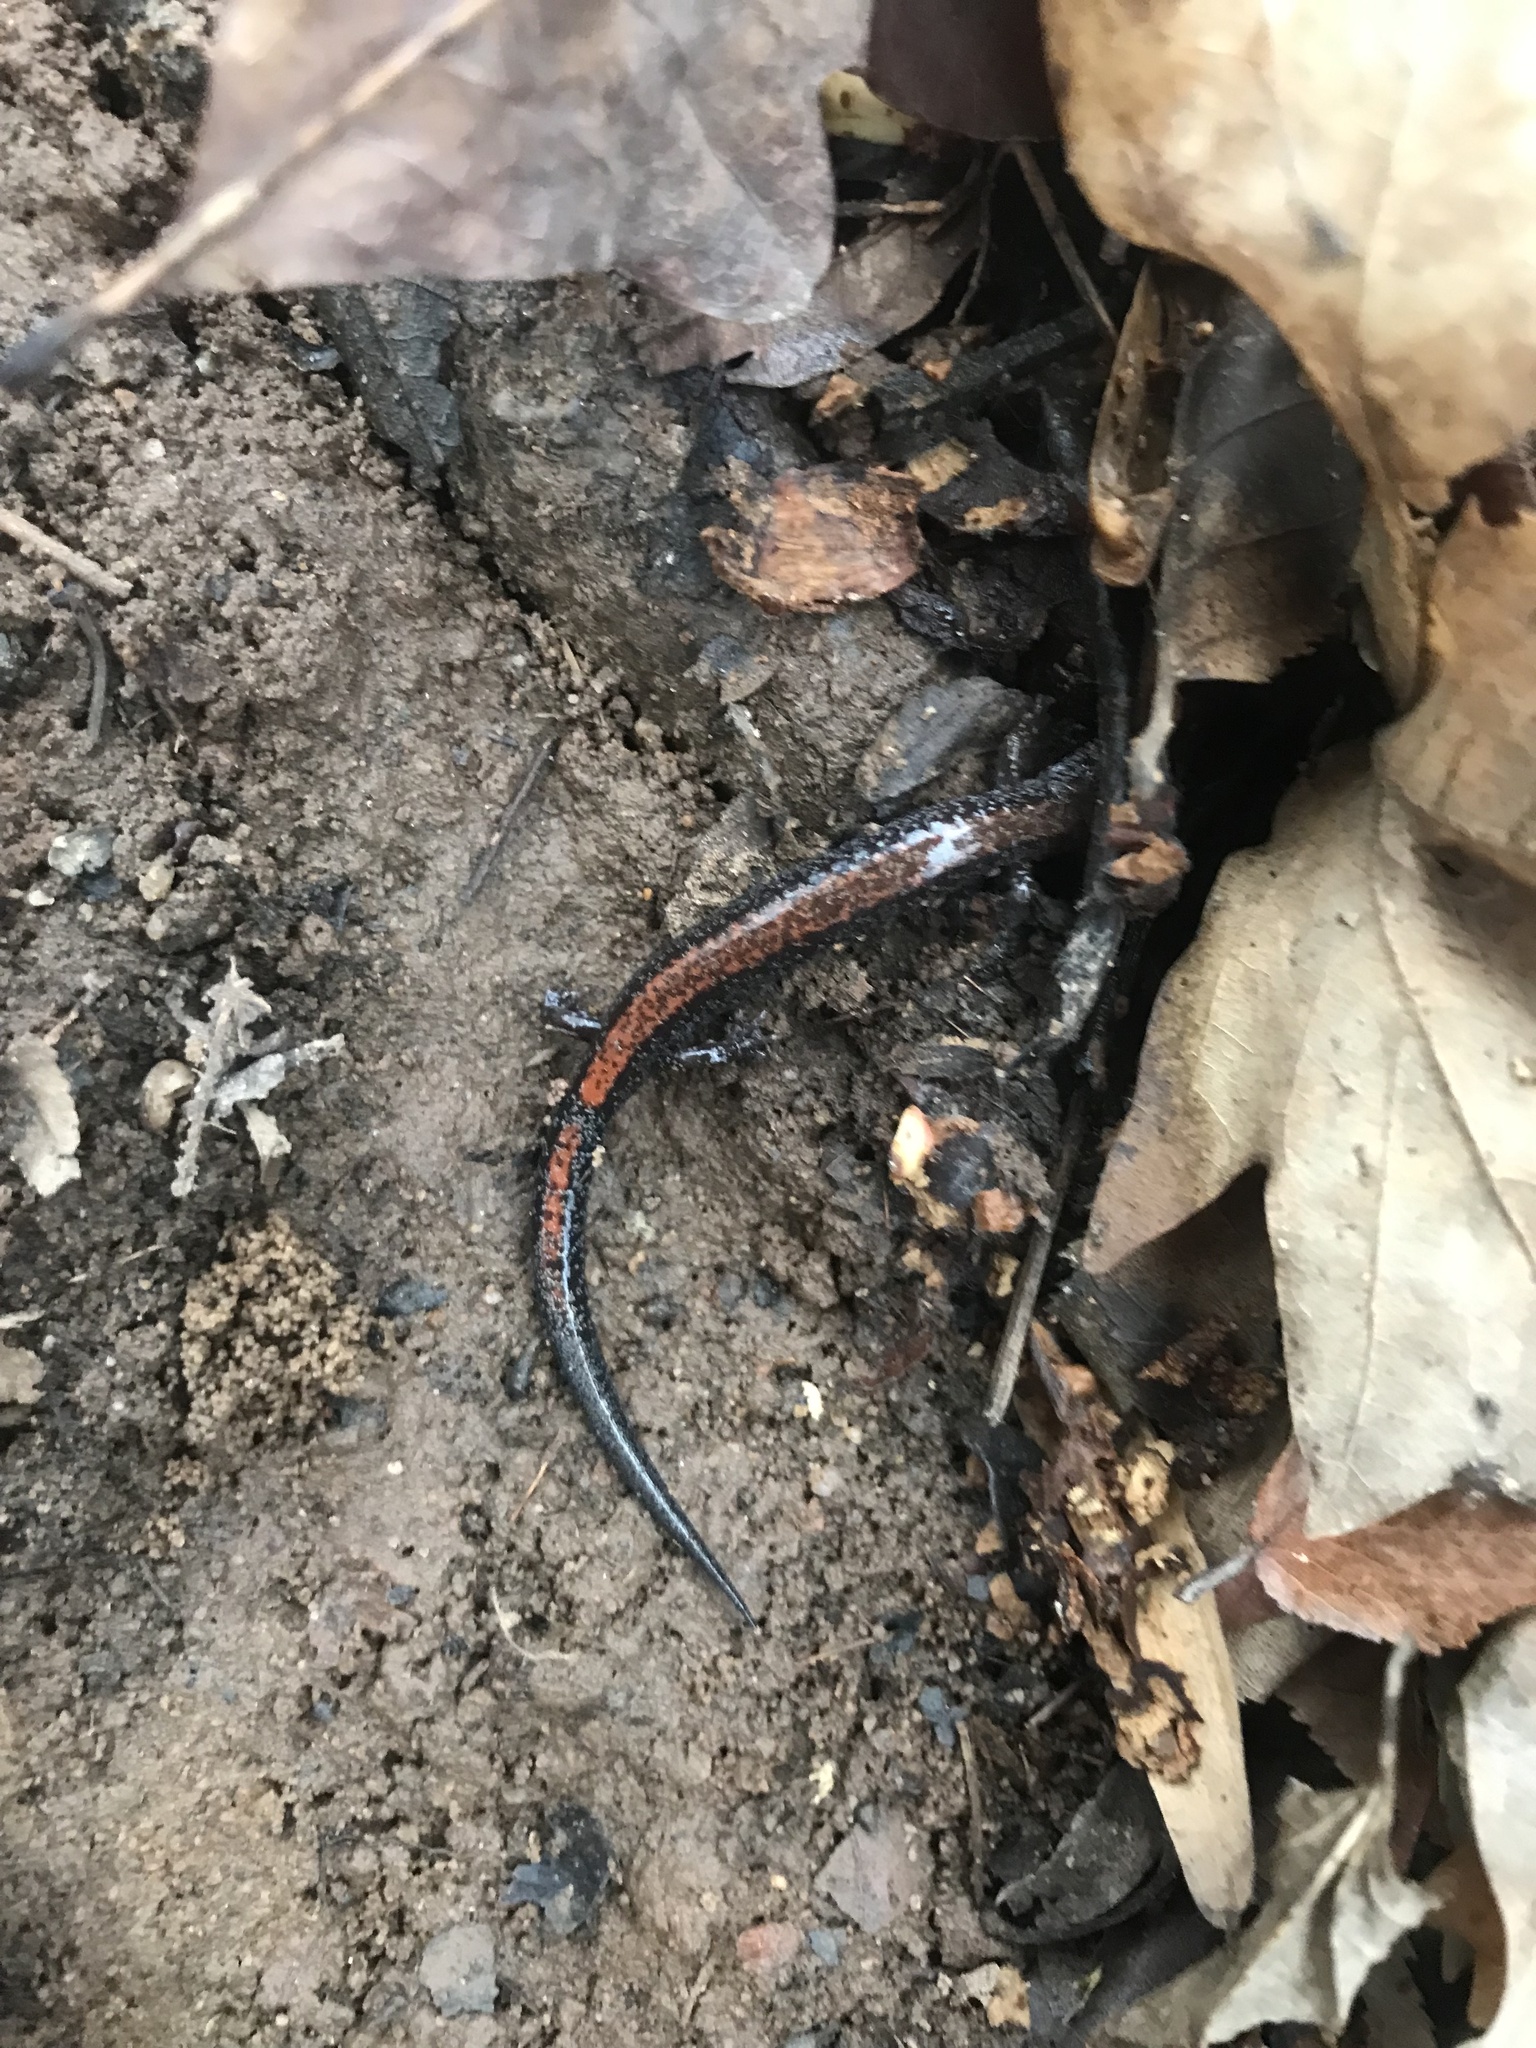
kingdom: Animalia
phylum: Chordata
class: Amphibia
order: Caudata
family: Plethodontidae
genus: Plethodon
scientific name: Plethodon cinereus
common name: Redback salamander
